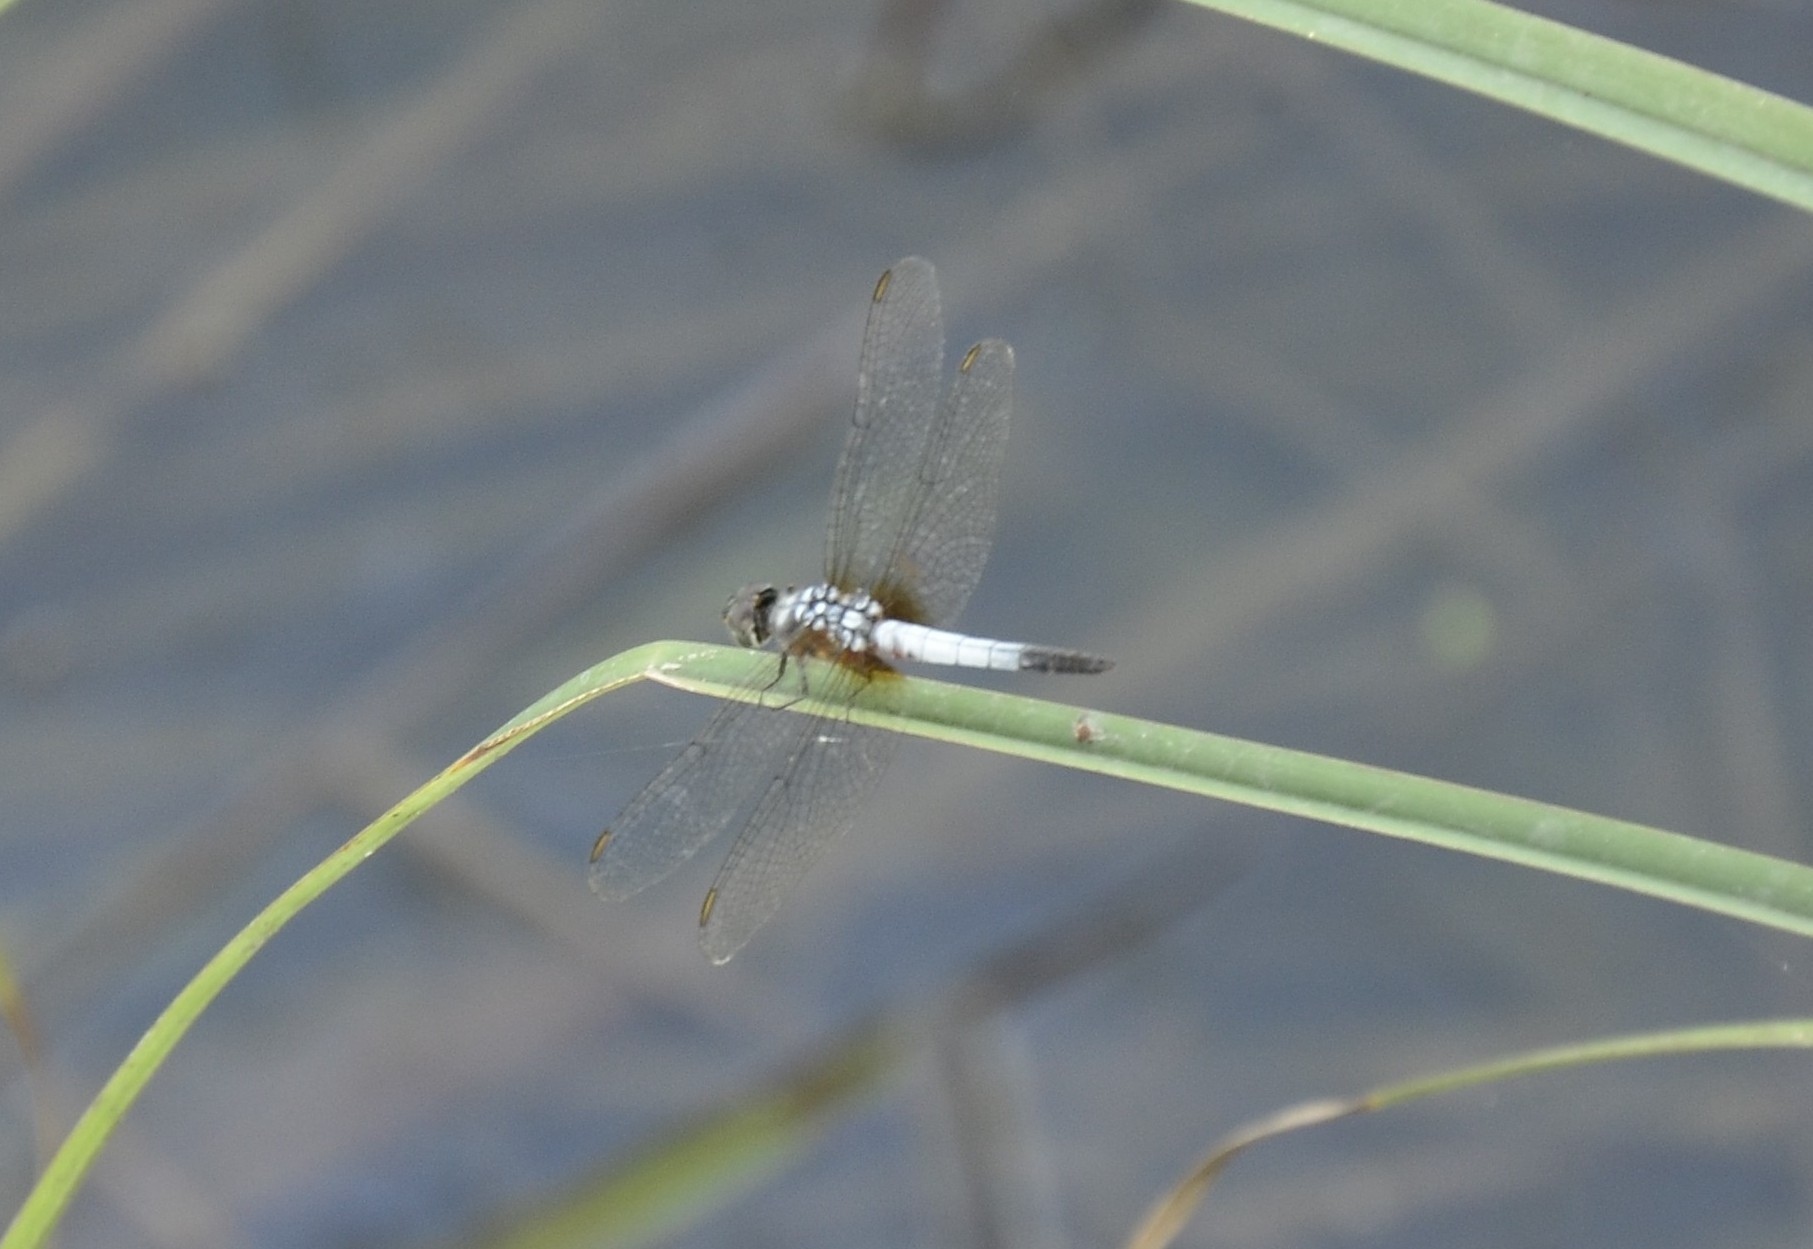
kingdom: Animalia
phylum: Arthropoda
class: Insecta
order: Odonata
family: Libellulidae
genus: Brachydiplax
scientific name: Brachydiplax chalybea
